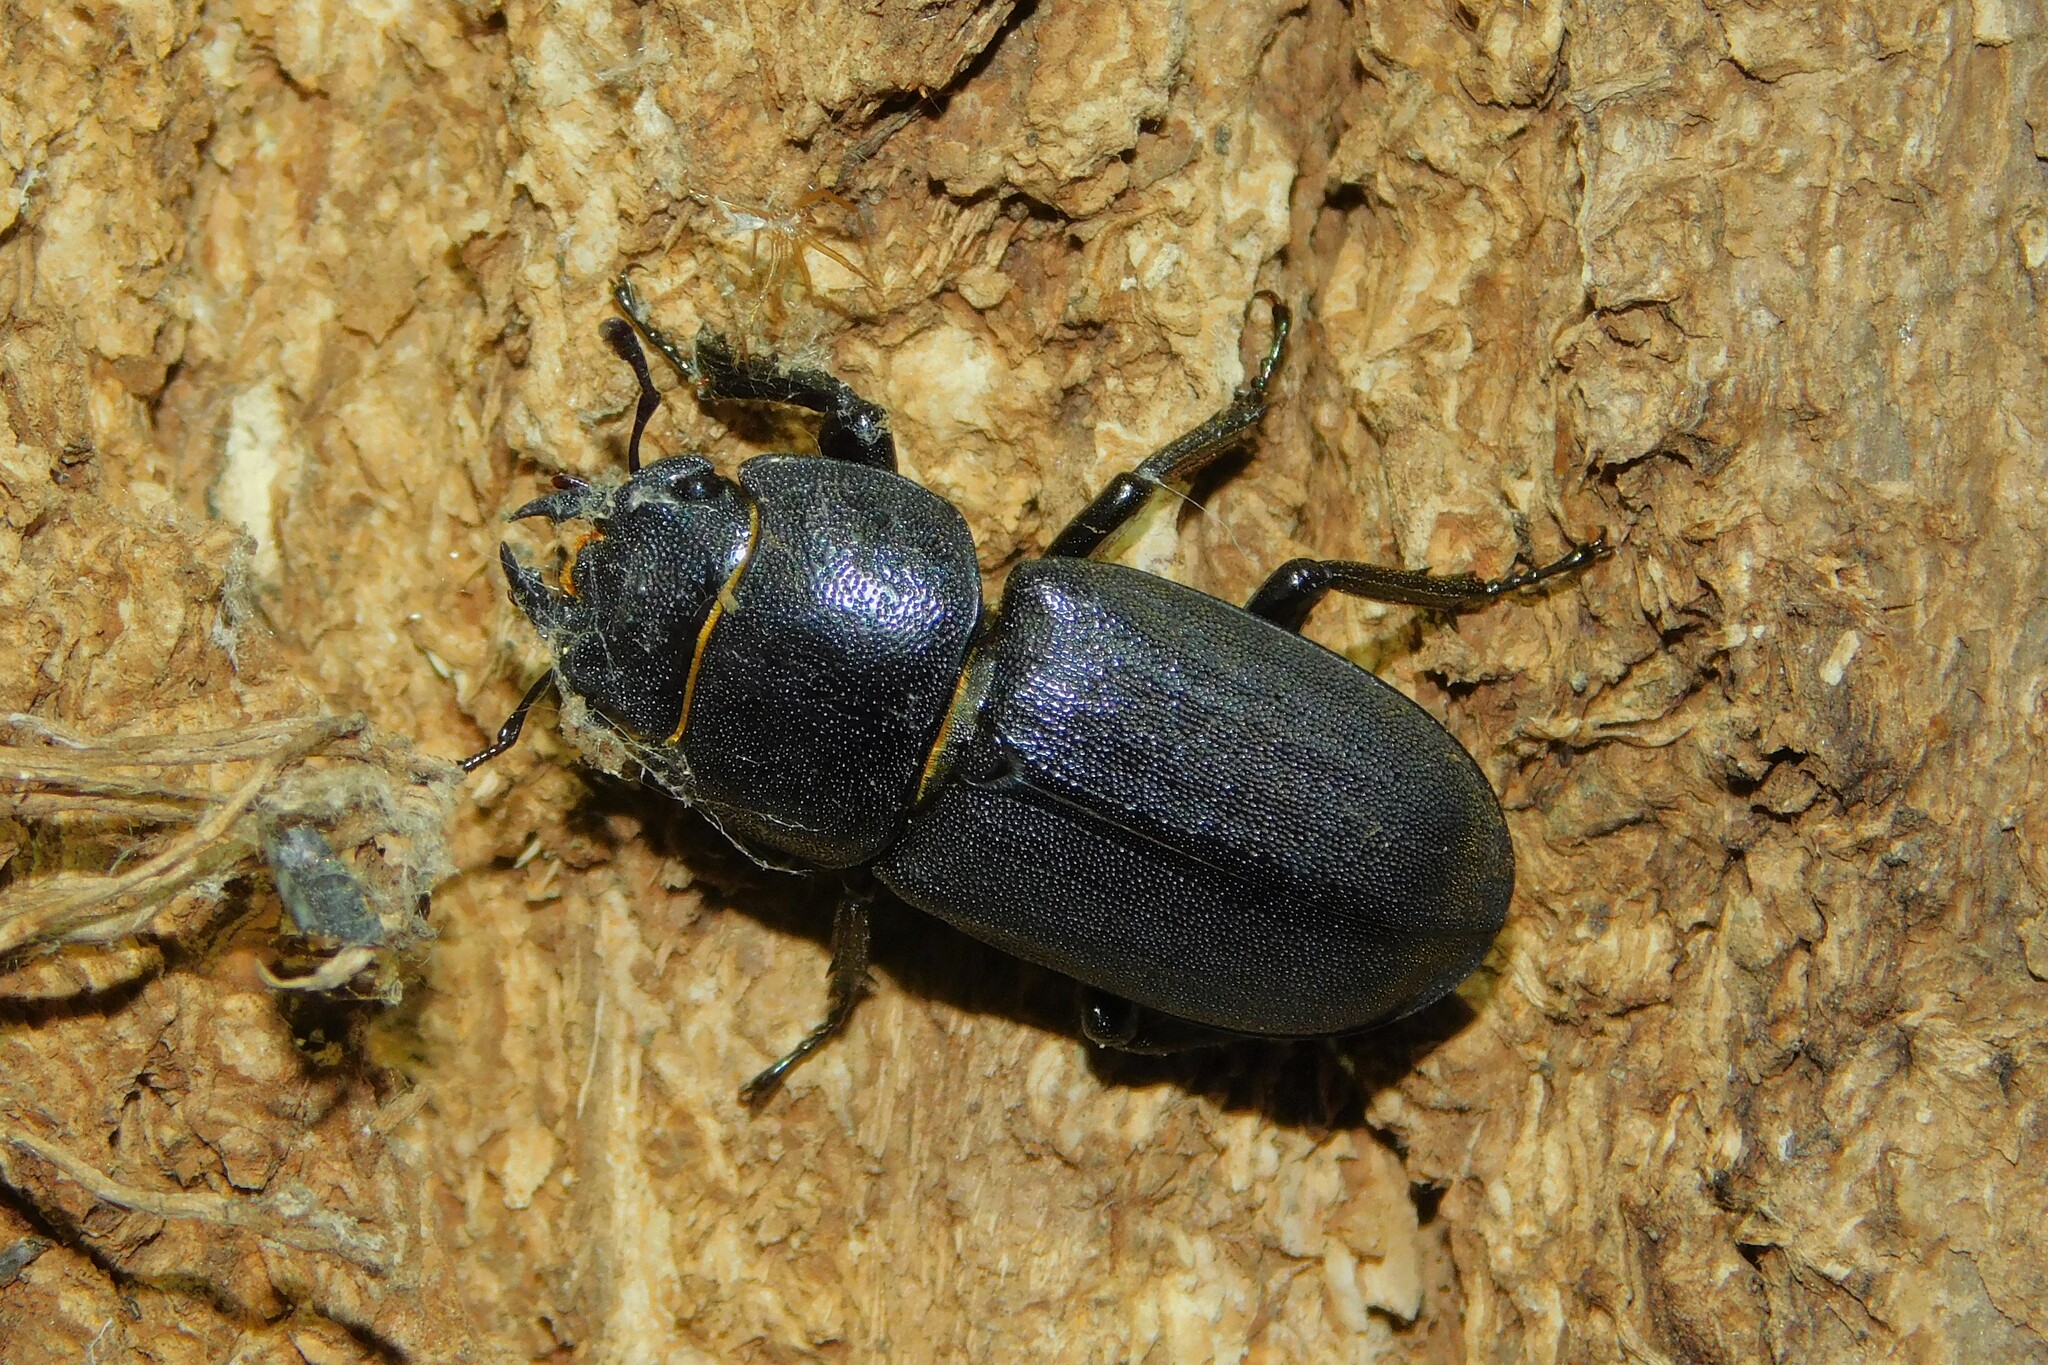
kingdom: Animalia
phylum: Arthropoda
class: Insecta
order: Coleoptera
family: Lucanidae
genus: Dorcus
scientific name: Dorcus parallelipipedus
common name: Lesser stag beetle
